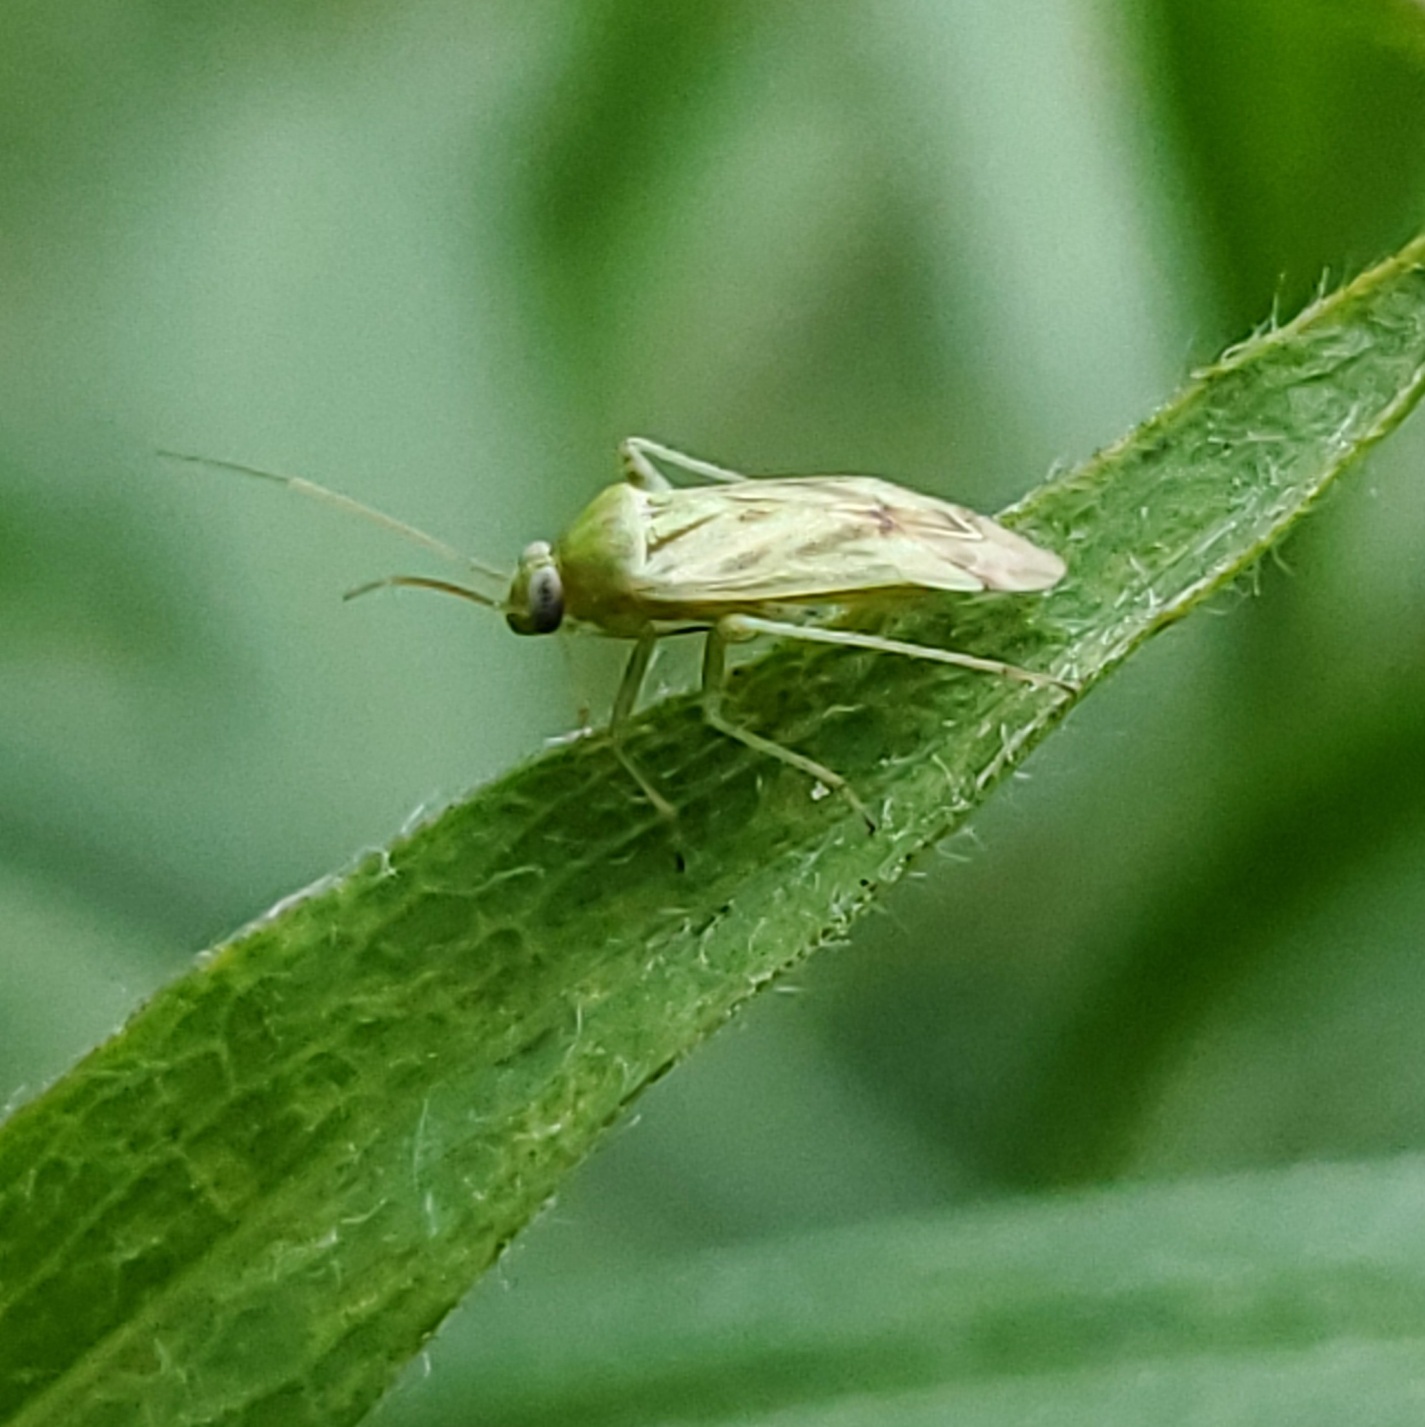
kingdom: Animalia
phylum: Arthropoda
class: Insecta
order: Hemiptera
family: Miridae
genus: Taylorilygus
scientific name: Taylorilygus apicalis
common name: Plant bug
